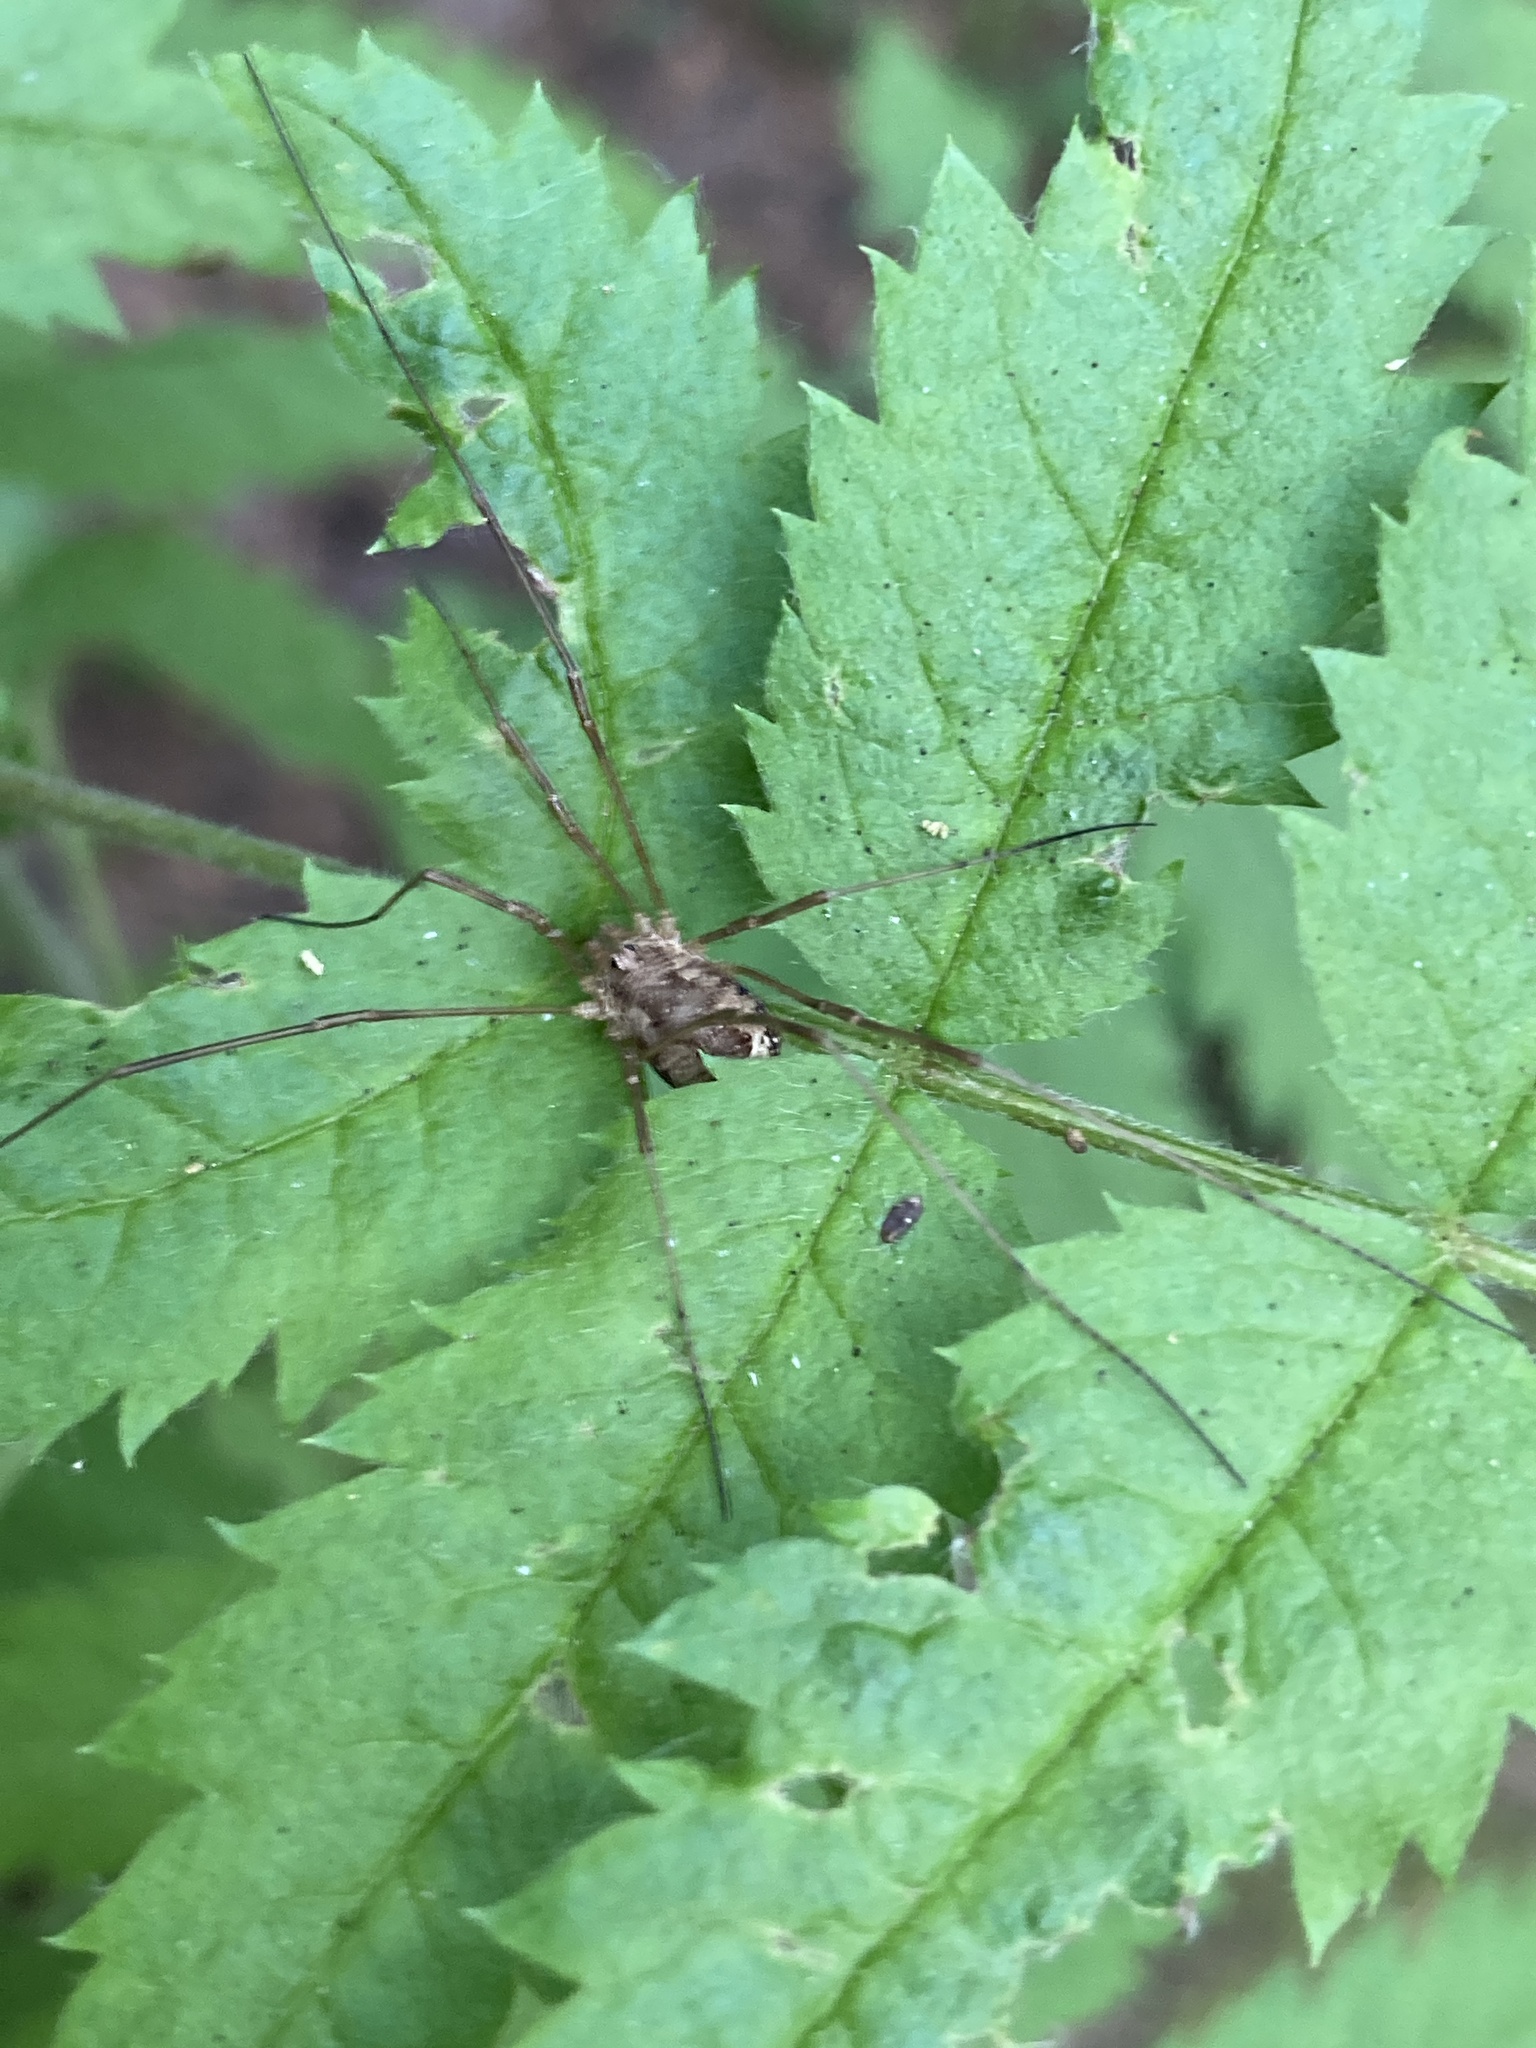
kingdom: Animalia
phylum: Arthropoda
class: Arachnida
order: Opiliones
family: Phalangiidae
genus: Rilaena
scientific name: Rilaena triangularis
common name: Spring harvestman
